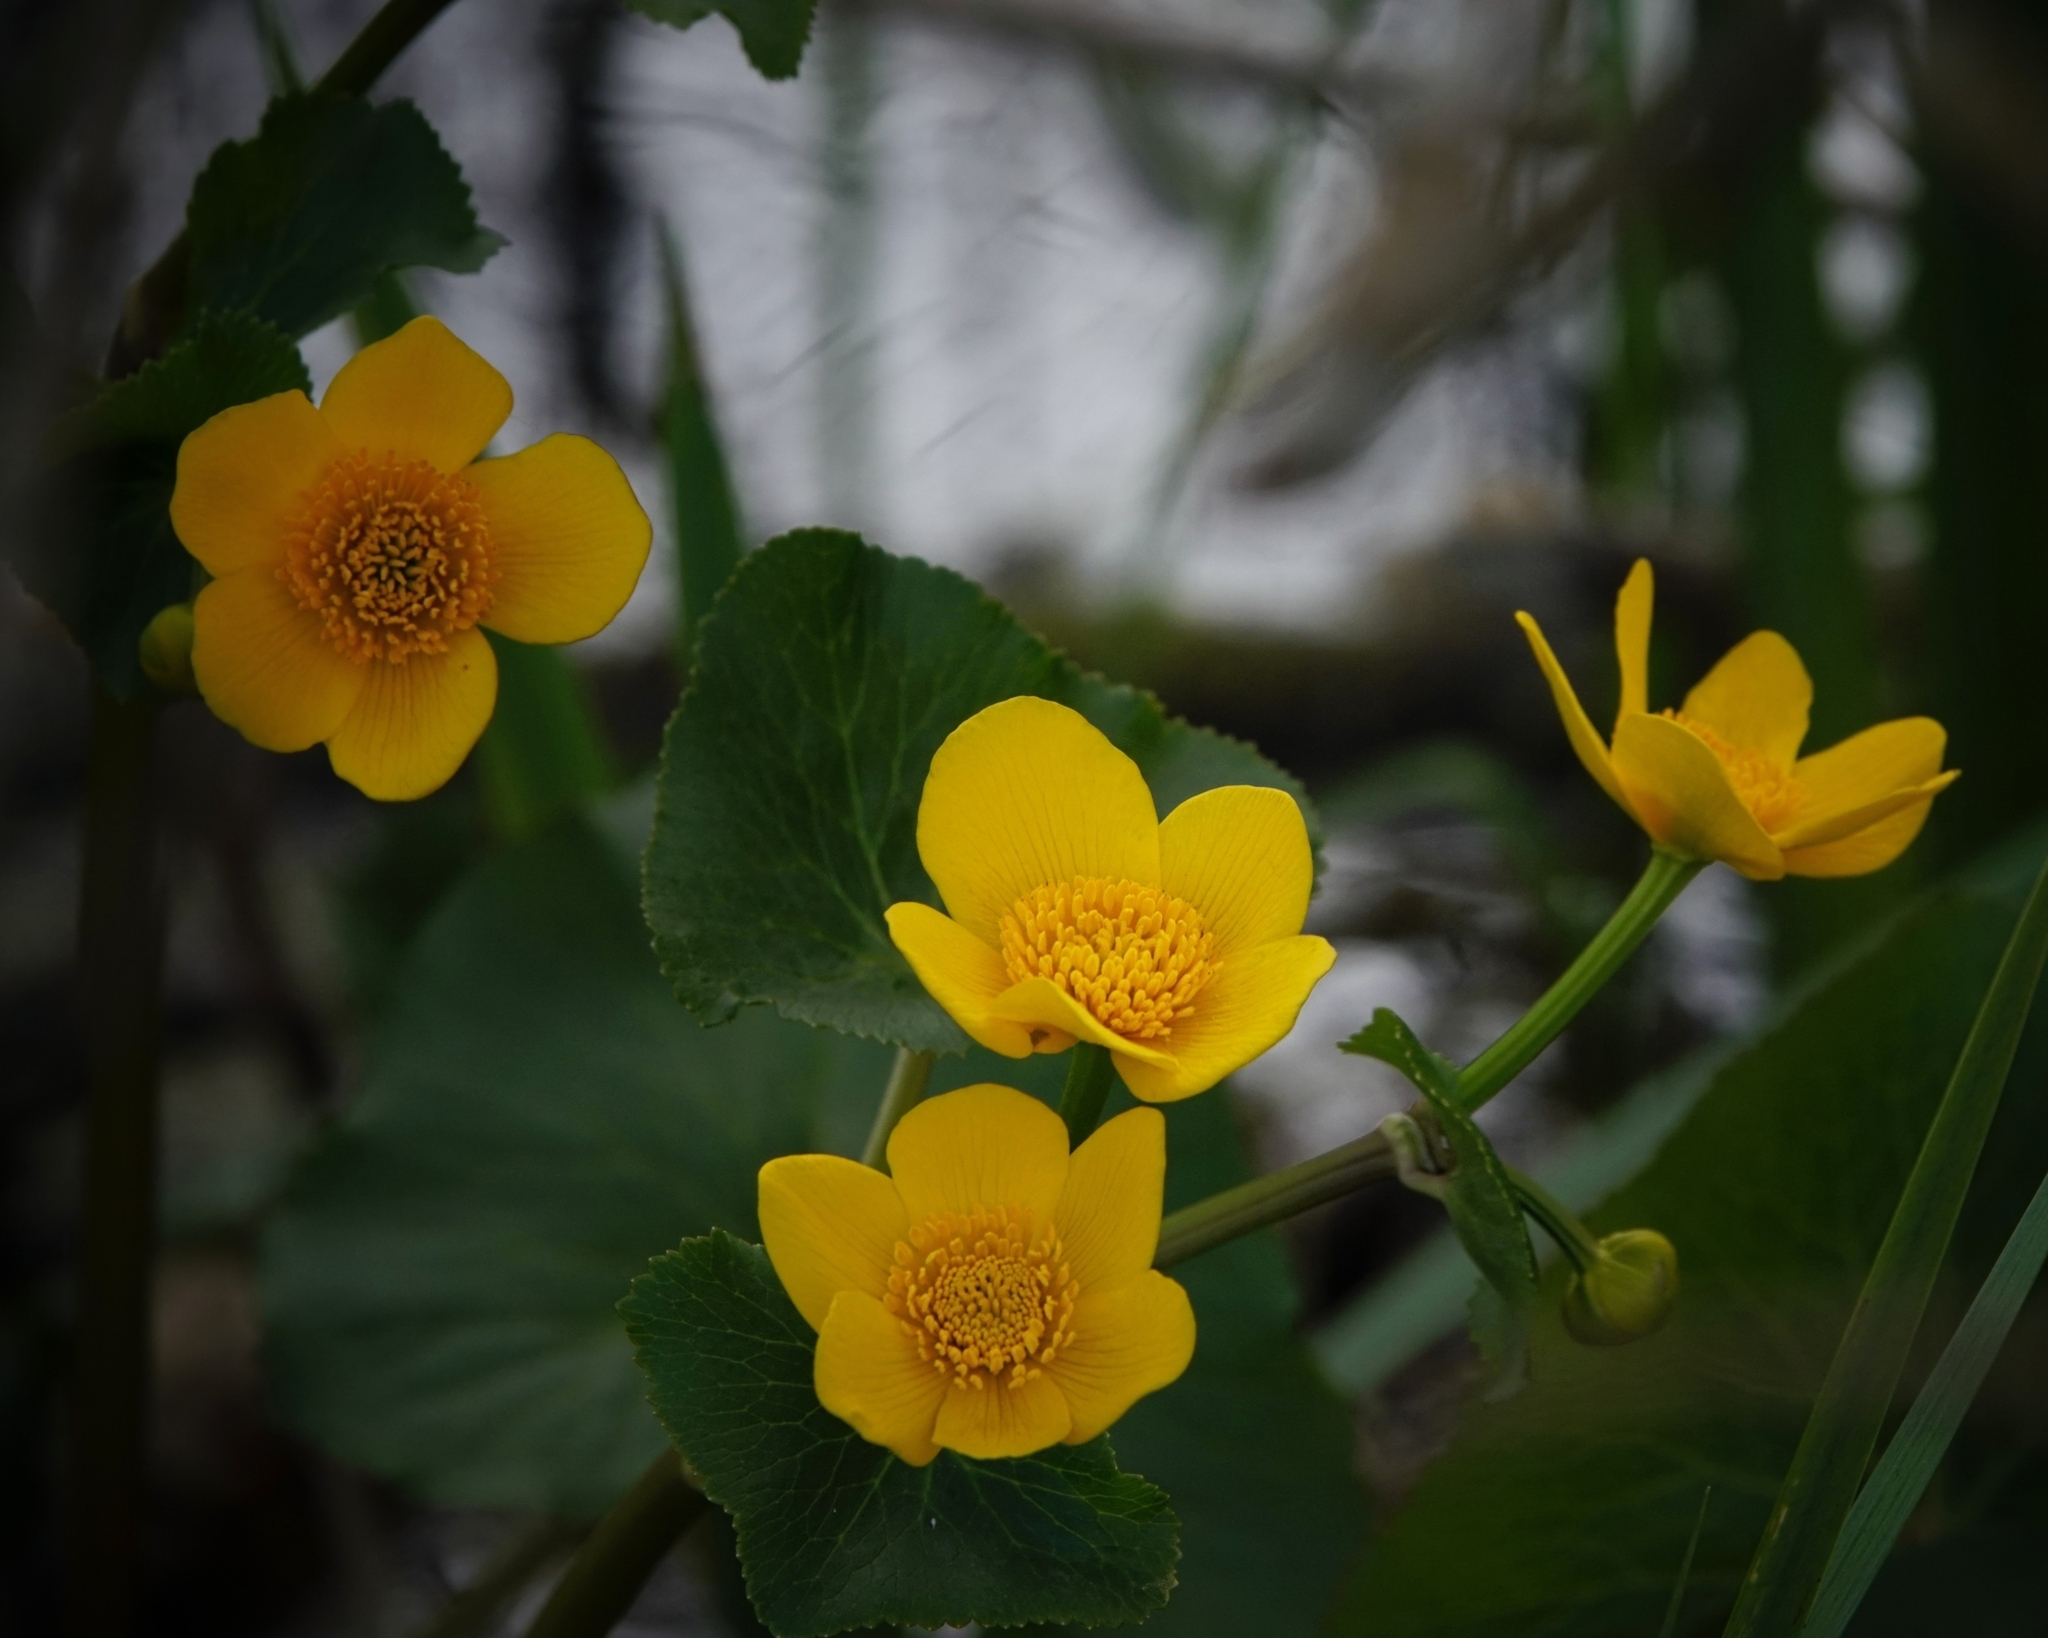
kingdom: Plantae
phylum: Tracheophyta
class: Magnoliopsida
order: Ranunculales
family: Ranunculaceae
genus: Caltha
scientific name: Caltha palustris
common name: Marsh marigold
